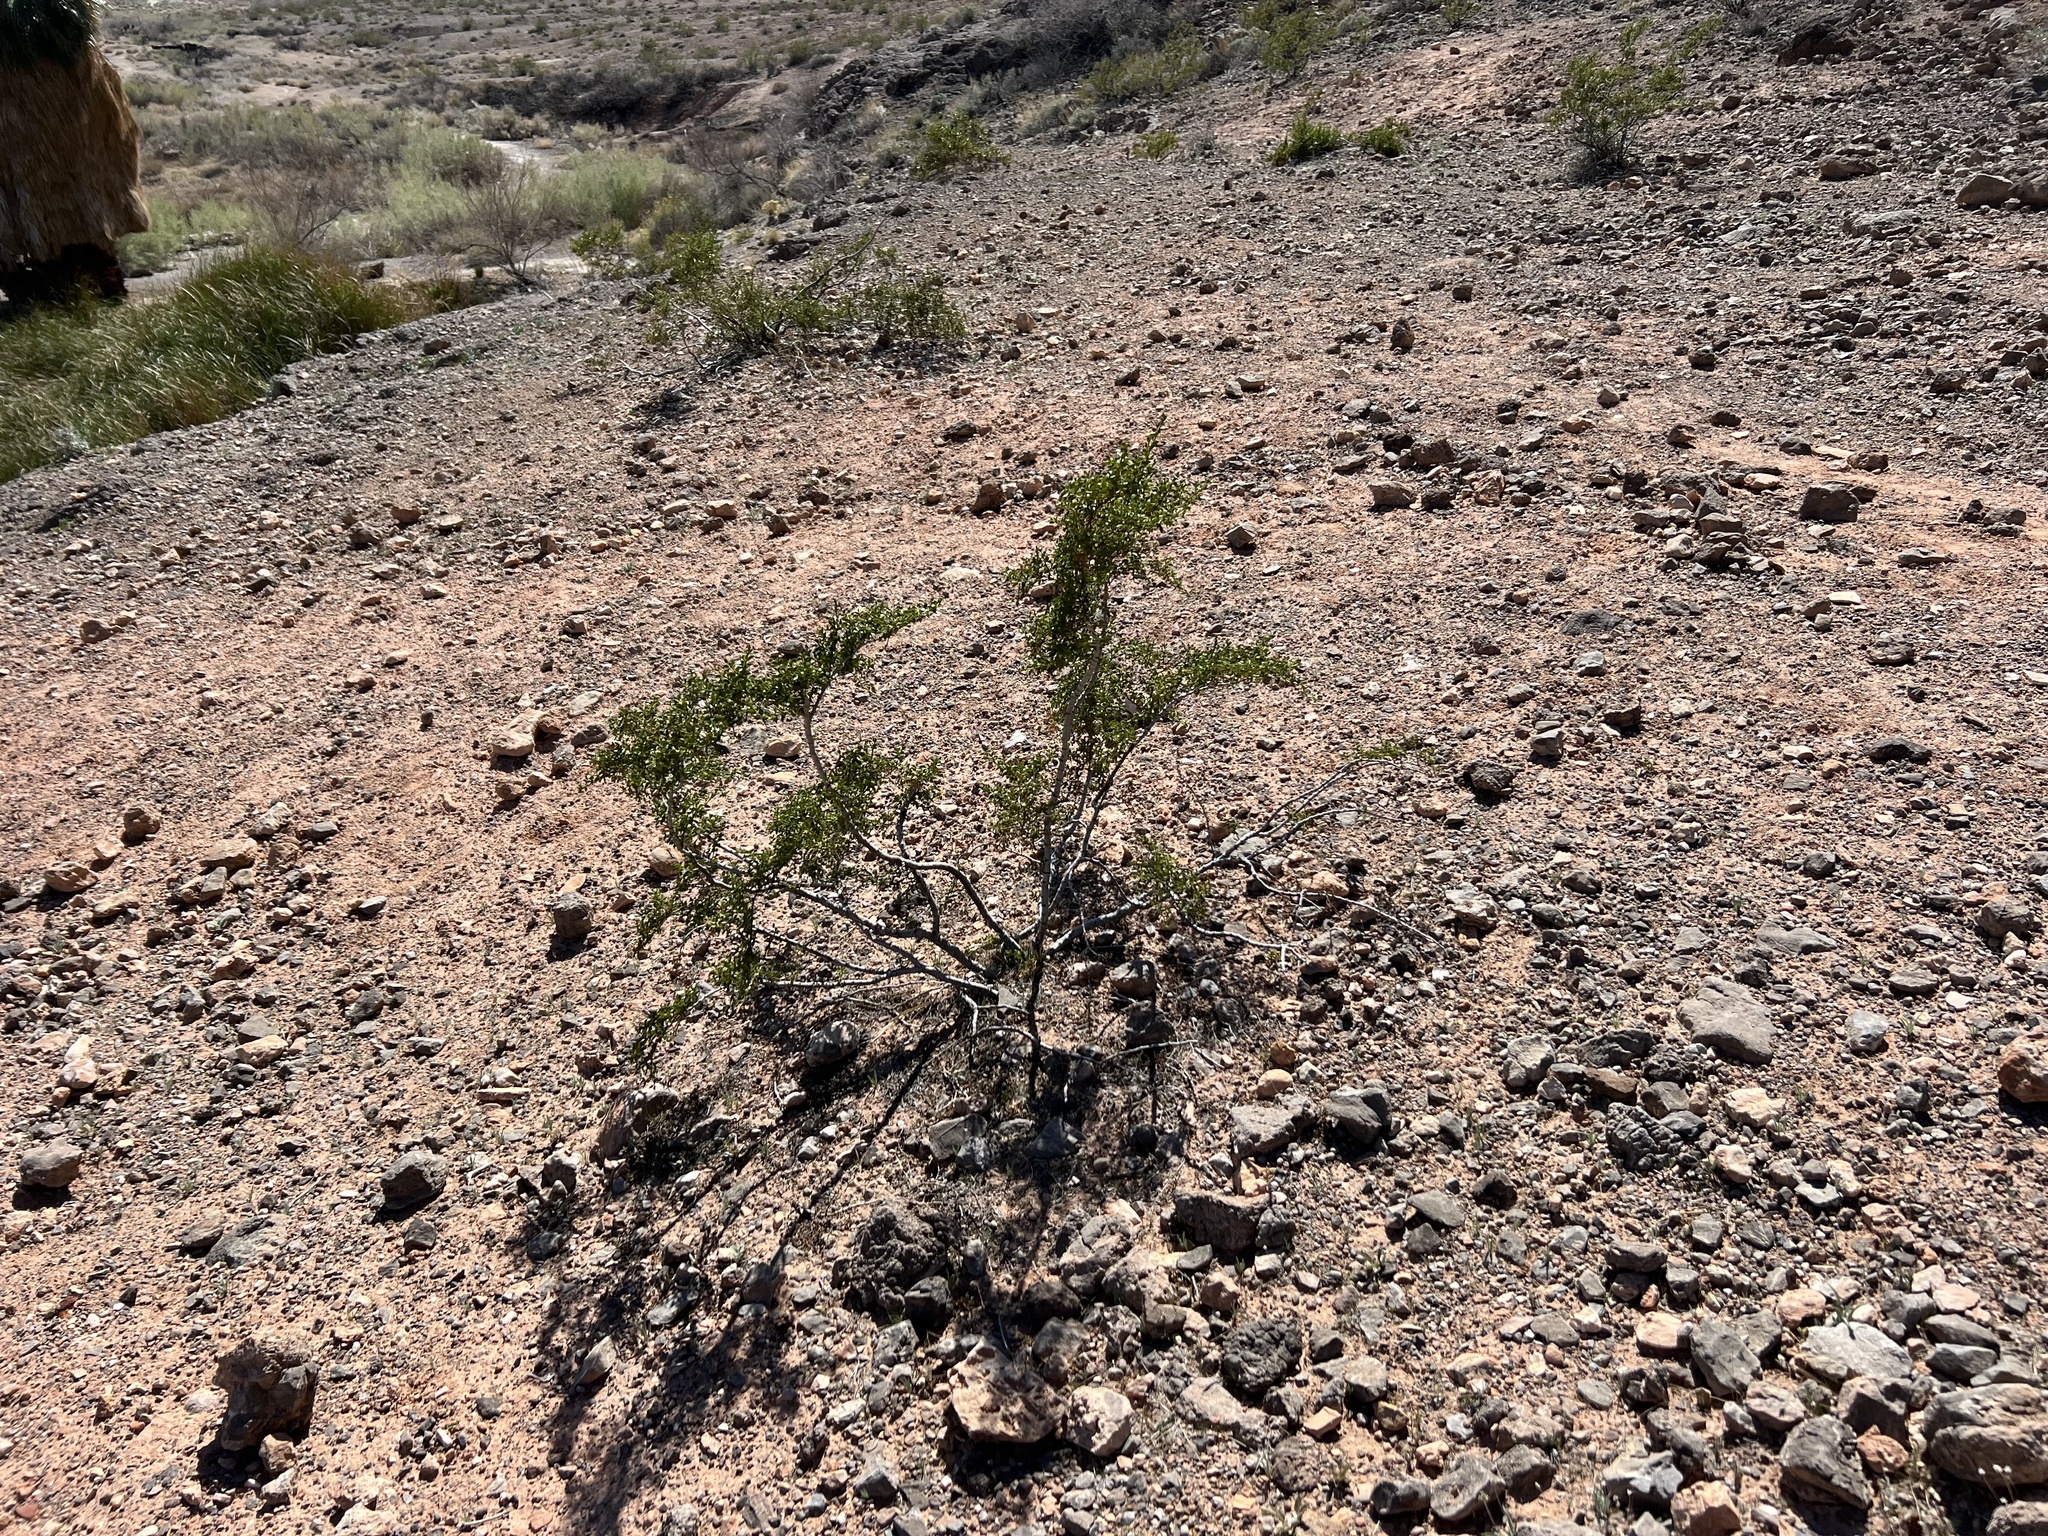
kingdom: Plantae
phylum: Tracheophyta
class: Magnoliopsida
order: Zygophyllales
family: Zygophyllaceae
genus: Larrea
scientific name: Larrea tridentata
